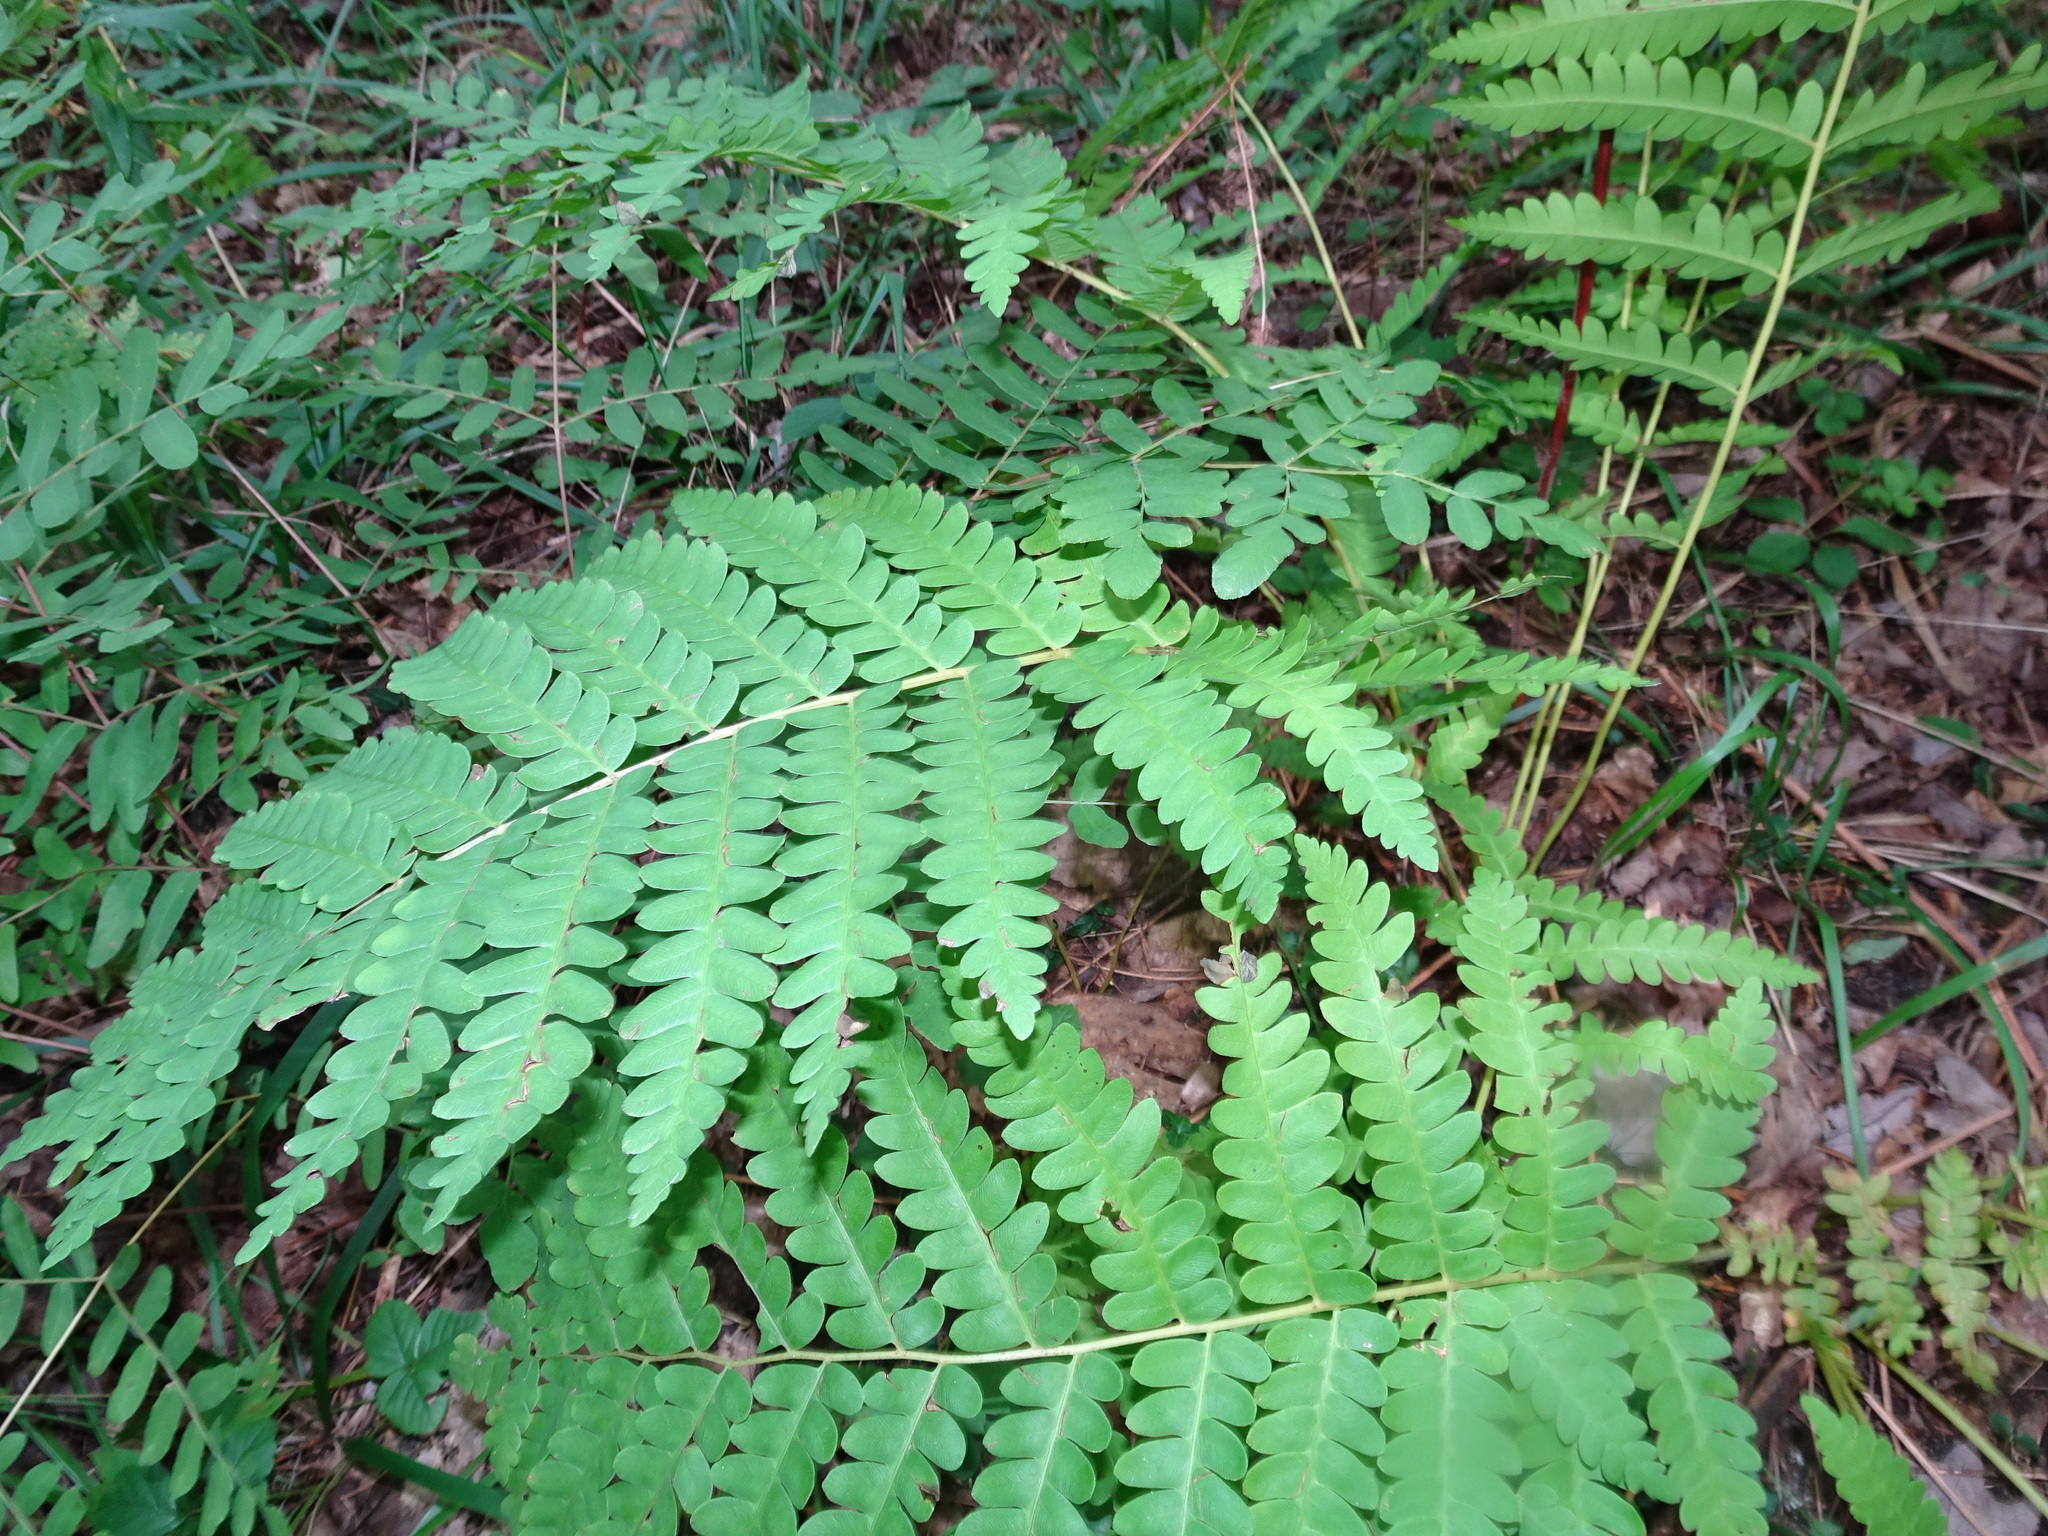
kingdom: Plantae
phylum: Tracheophyta
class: Polypodiopsida
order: Osmundales
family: Osmundaceae
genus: Claytosmunda
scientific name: Claytosmunda claytoniana
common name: Clayton's fern
